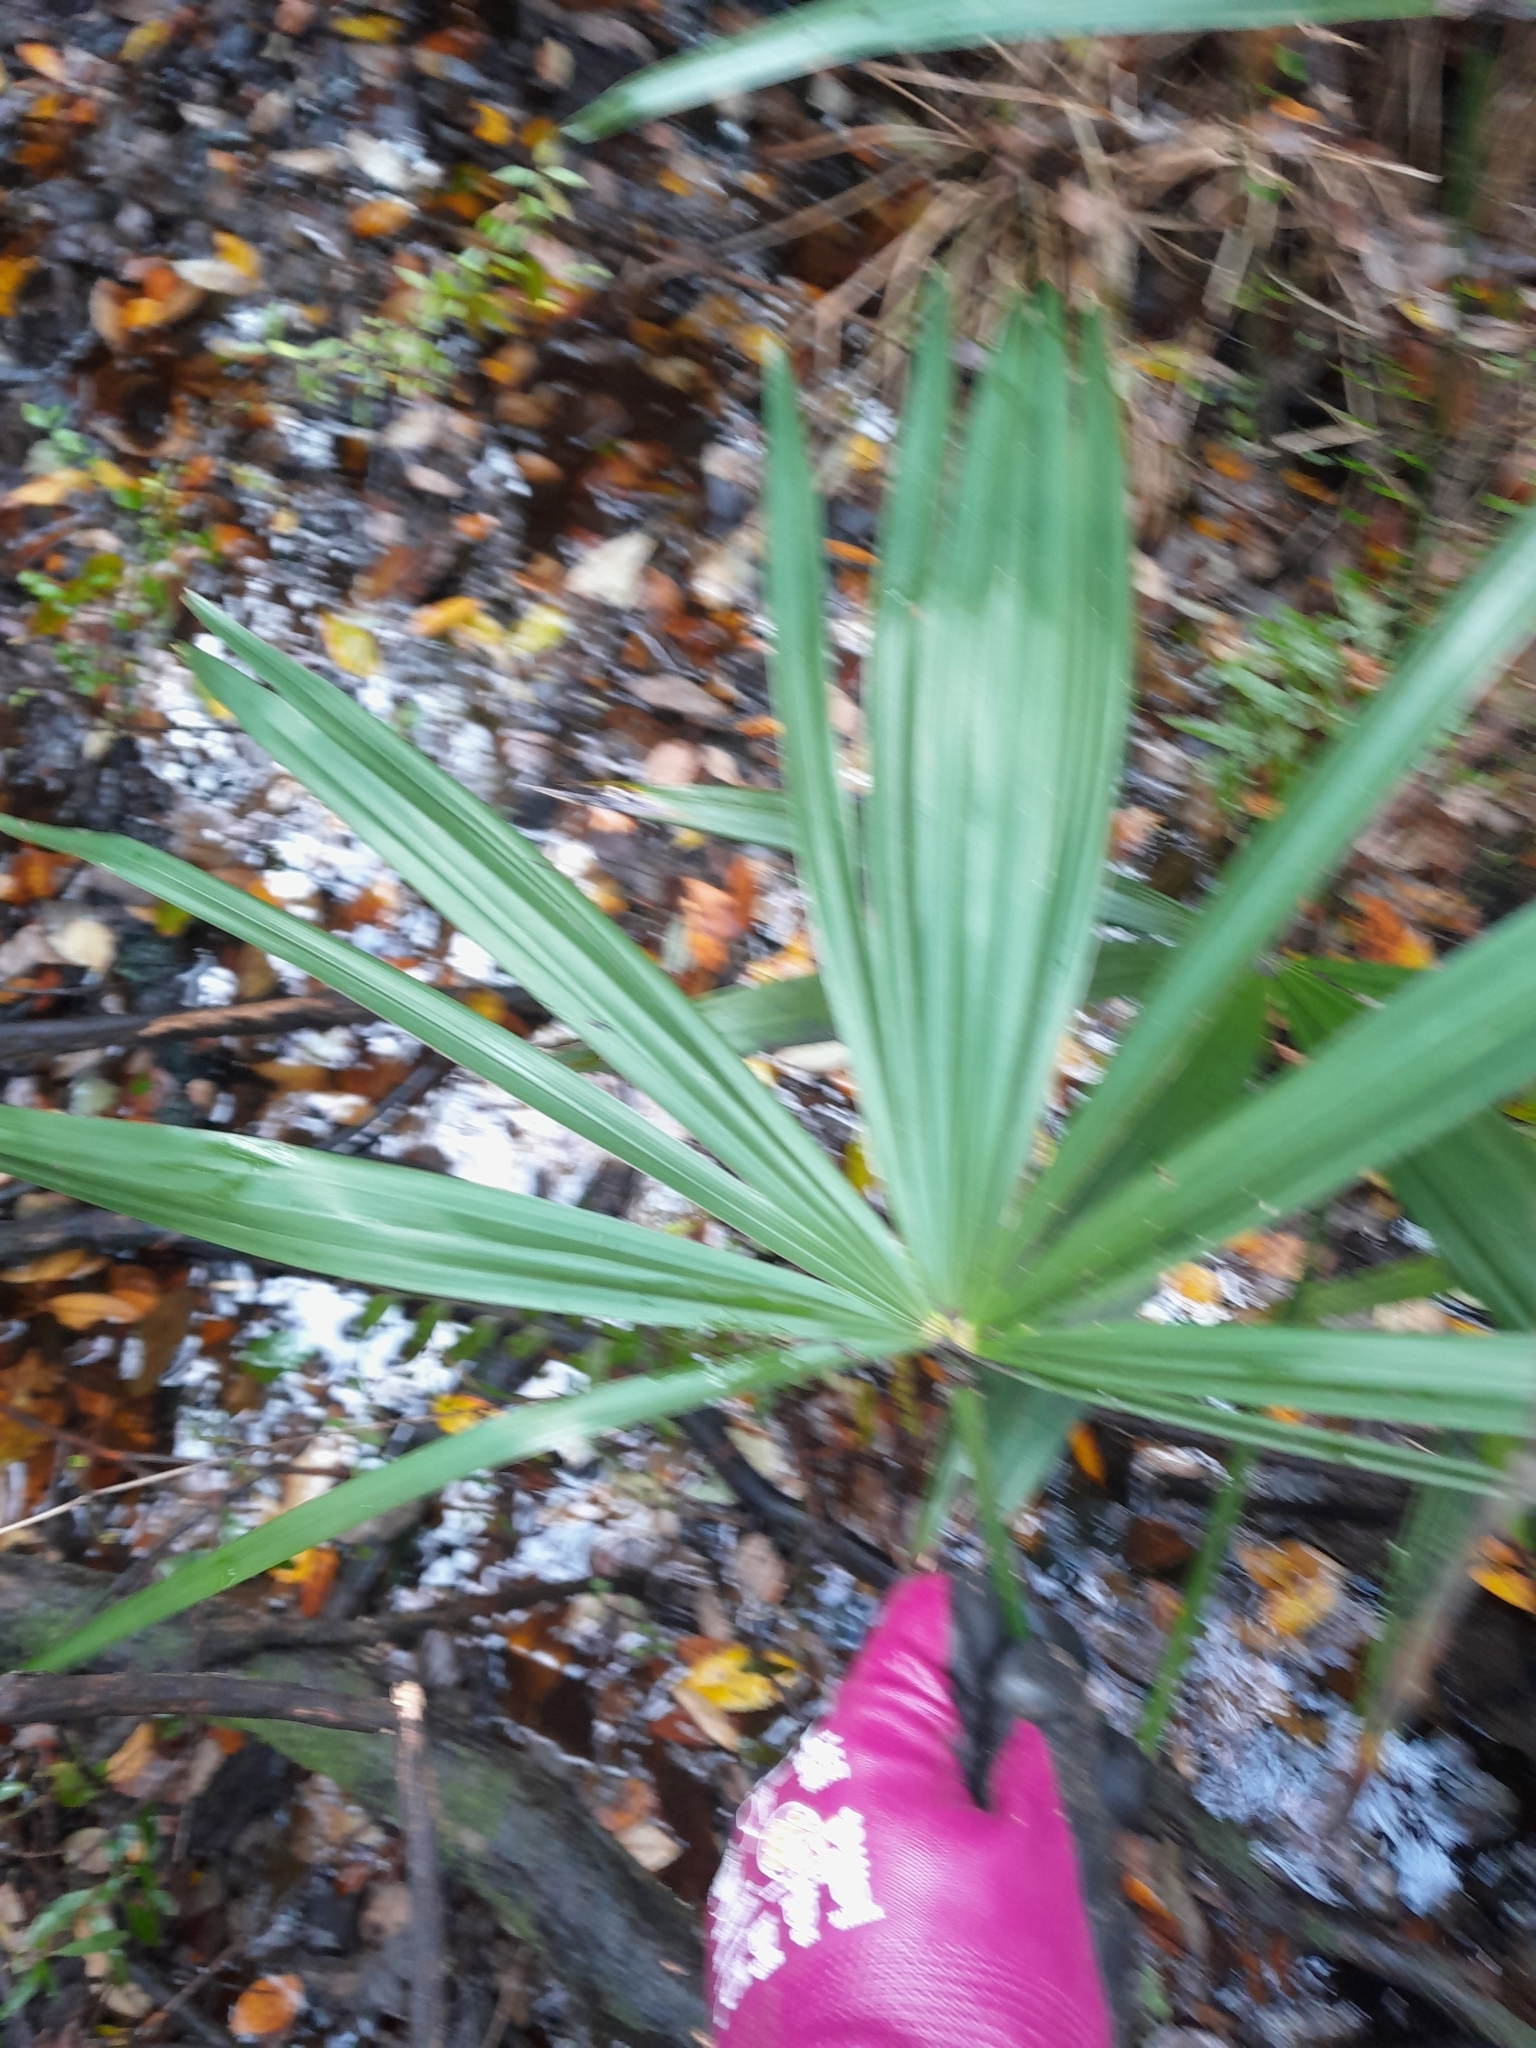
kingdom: Plantae
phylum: Tracheophyta
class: Liliopsida
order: Arecales
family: Arecaceae
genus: Trachycarpus
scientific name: Trachycarpus fortunei
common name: Chusan palm
